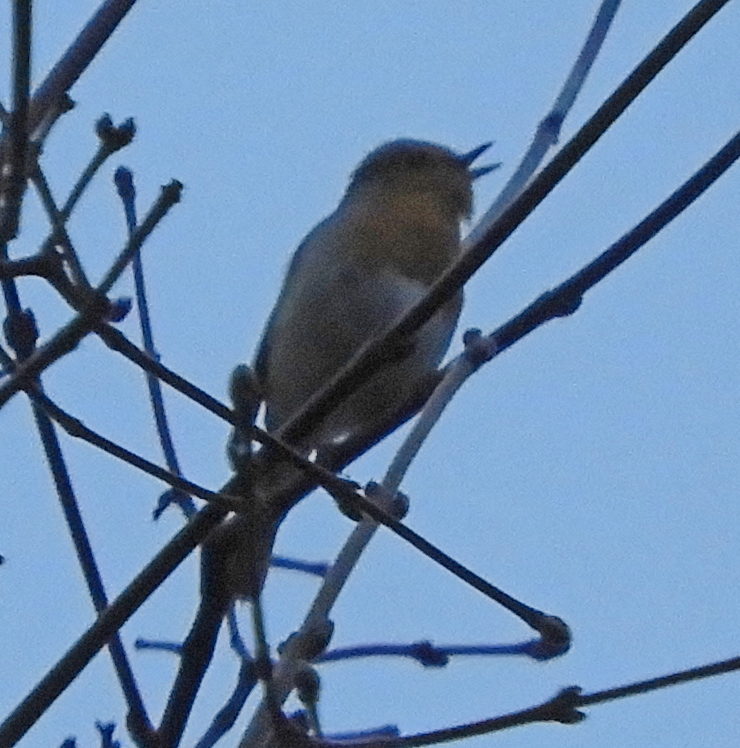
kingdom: Animalia
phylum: Chordata
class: Aves
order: Passeriformes
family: Muscicapidae
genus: Erithacus
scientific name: Erithacus rubecula
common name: European robin
